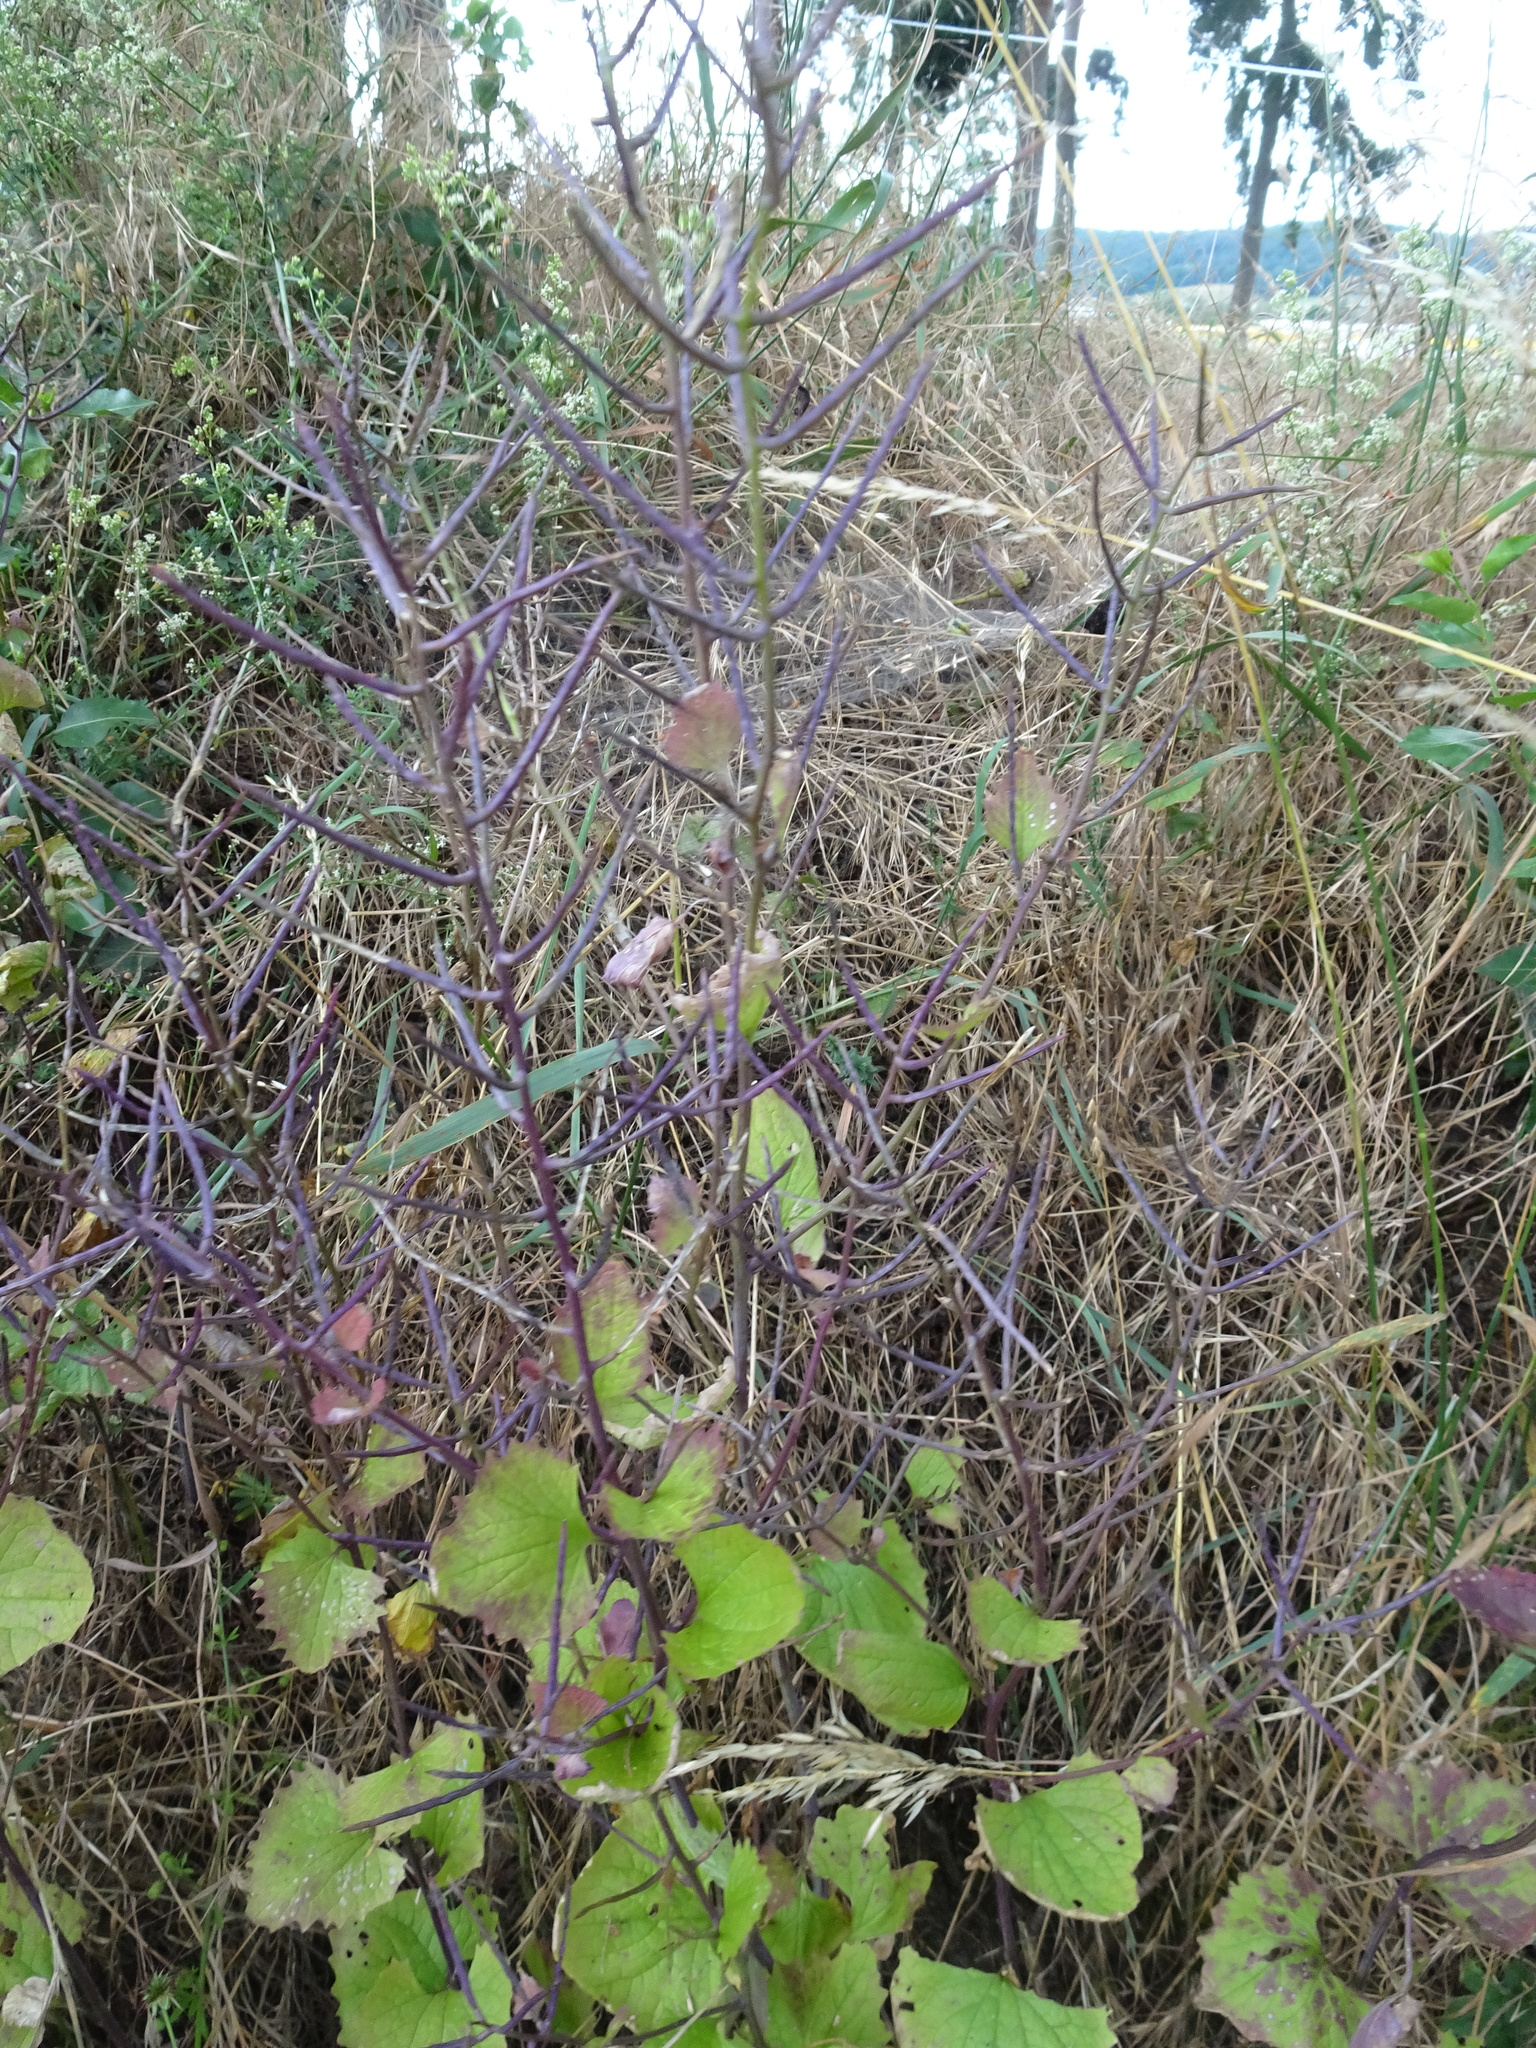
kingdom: Plantae
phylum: Tracheophyta
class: Magnoliopsida
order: Brassicales
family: Brassicaceae
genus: Alliaria
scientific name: Alliaria petiolata
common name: Garlic mustard
